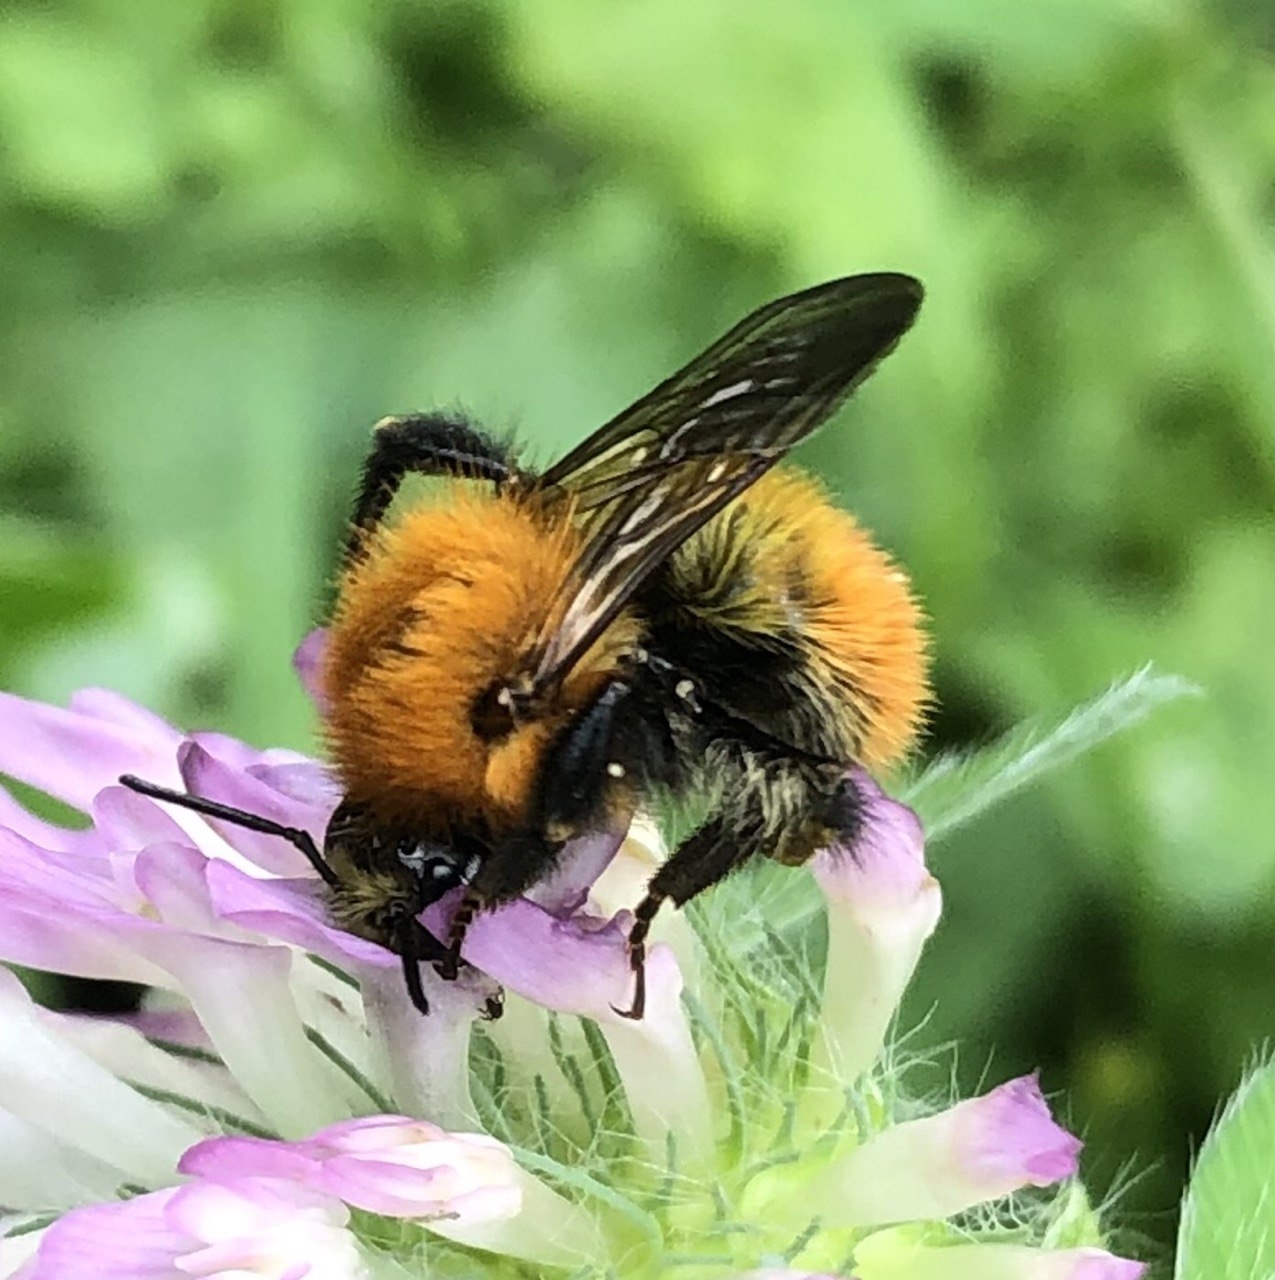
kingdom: Animalia
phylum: Arthropoda
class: Insecta
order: Hymenoptera
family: Apidae
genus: Bombus
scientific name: Bombus pascuorum
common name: Common carder bee
